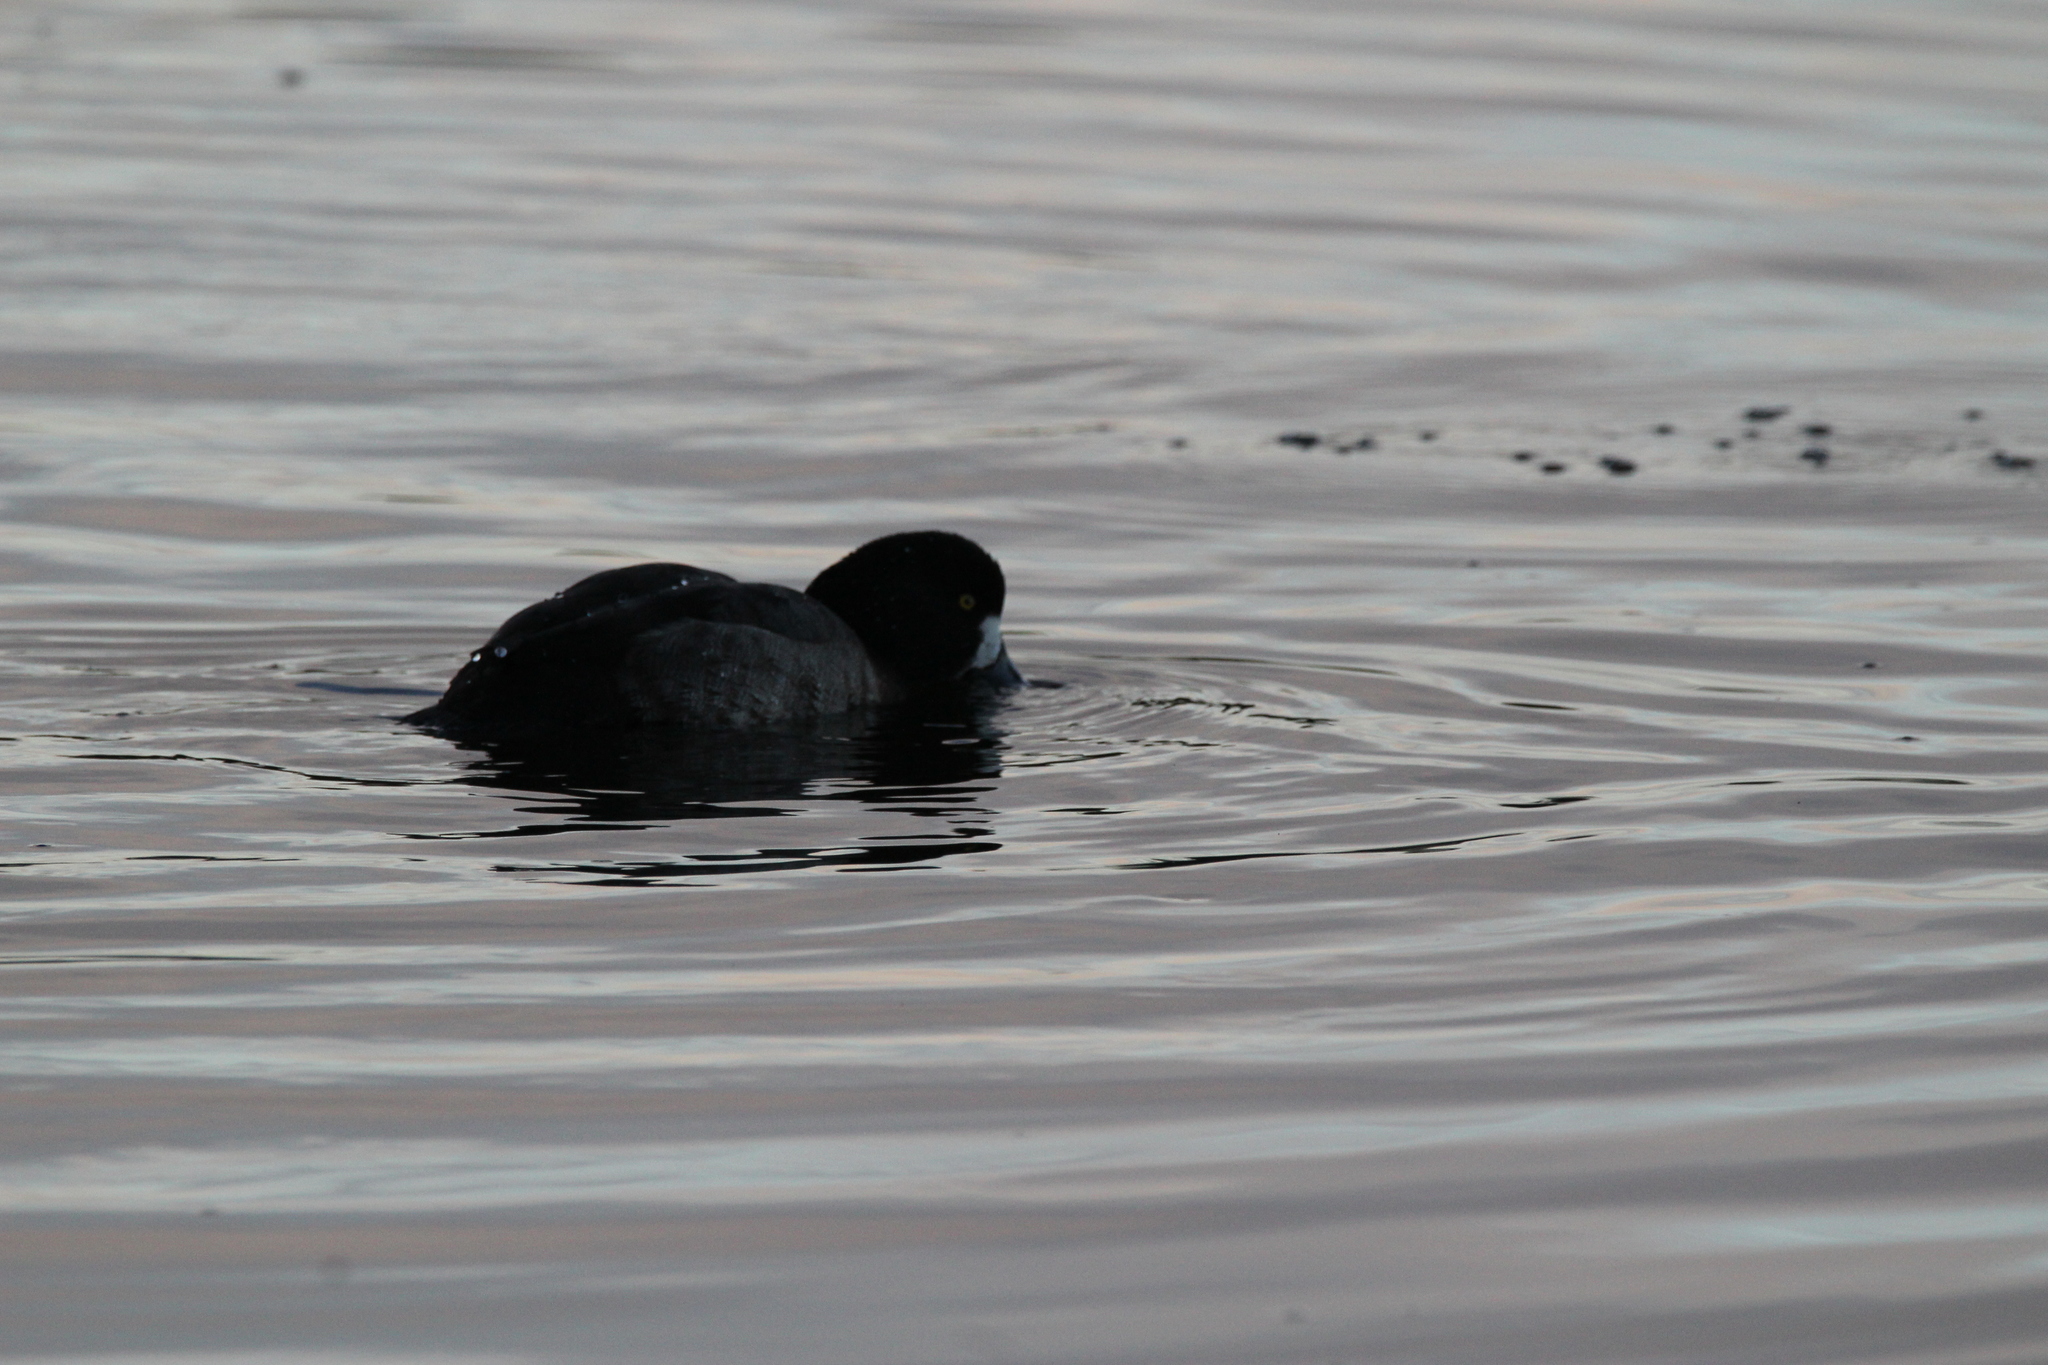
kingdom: Animalia
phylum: Chordata
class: Aves
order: Anseriformes
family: Anatidae
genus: Aythya
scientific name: Aythya
